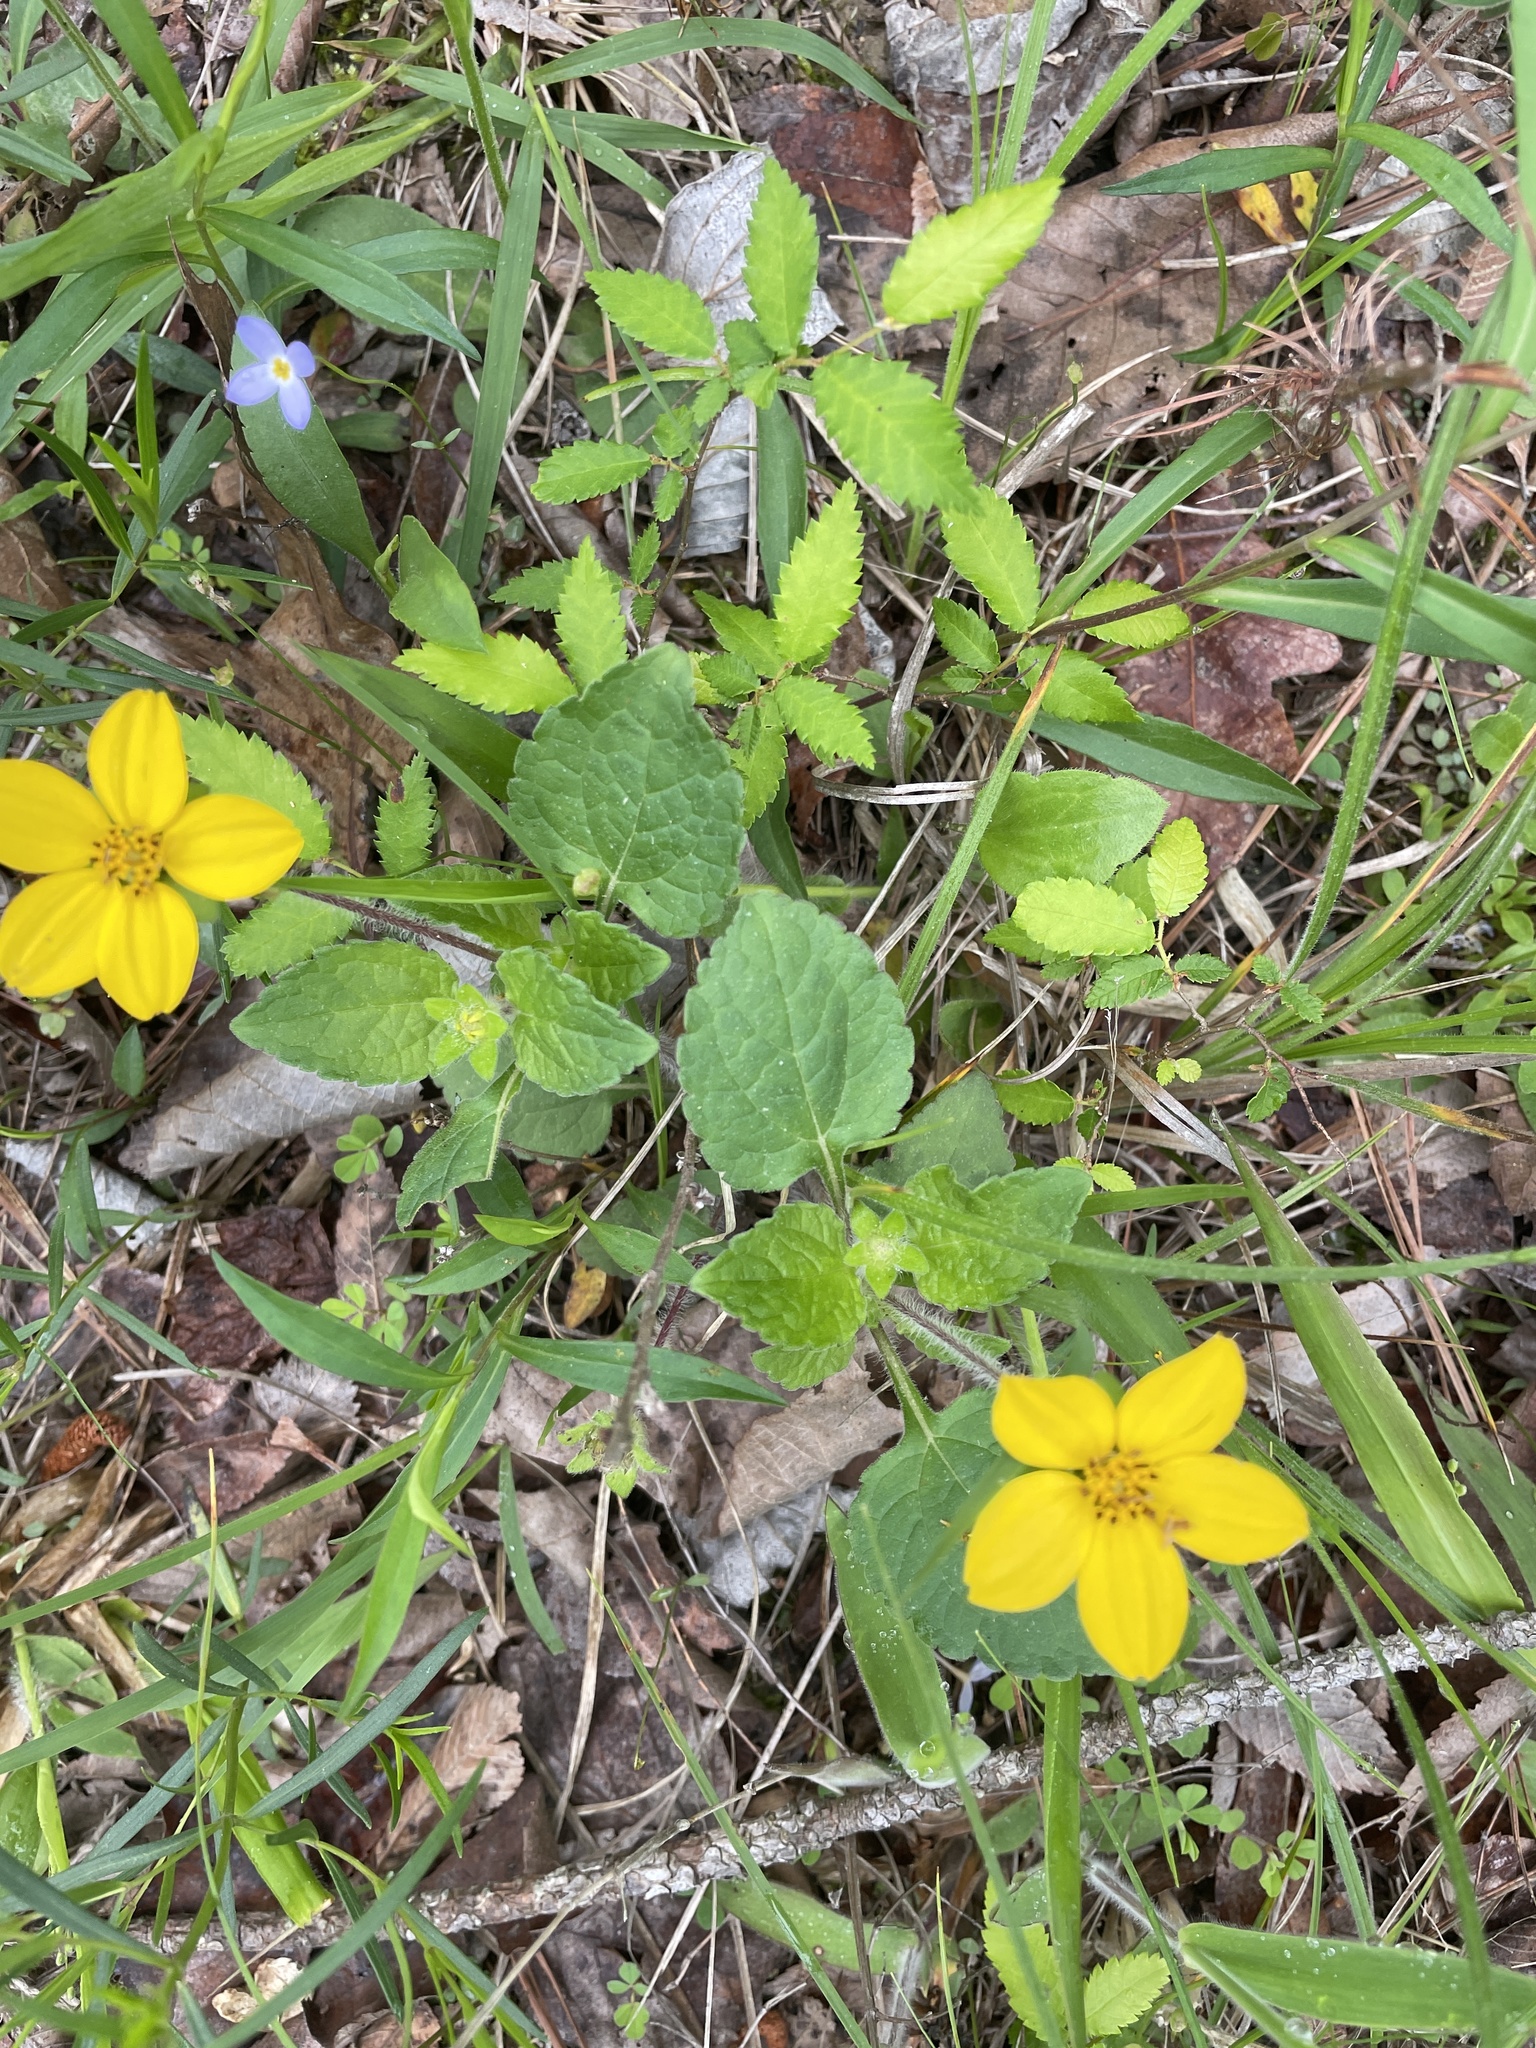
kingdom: Plantae
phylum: Tracheophyta
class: Magnoliopsida
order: Asterales
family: Asteraceae
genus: Chrysogonum
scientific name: Chrysogonum virginianum
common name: Golden-knee
